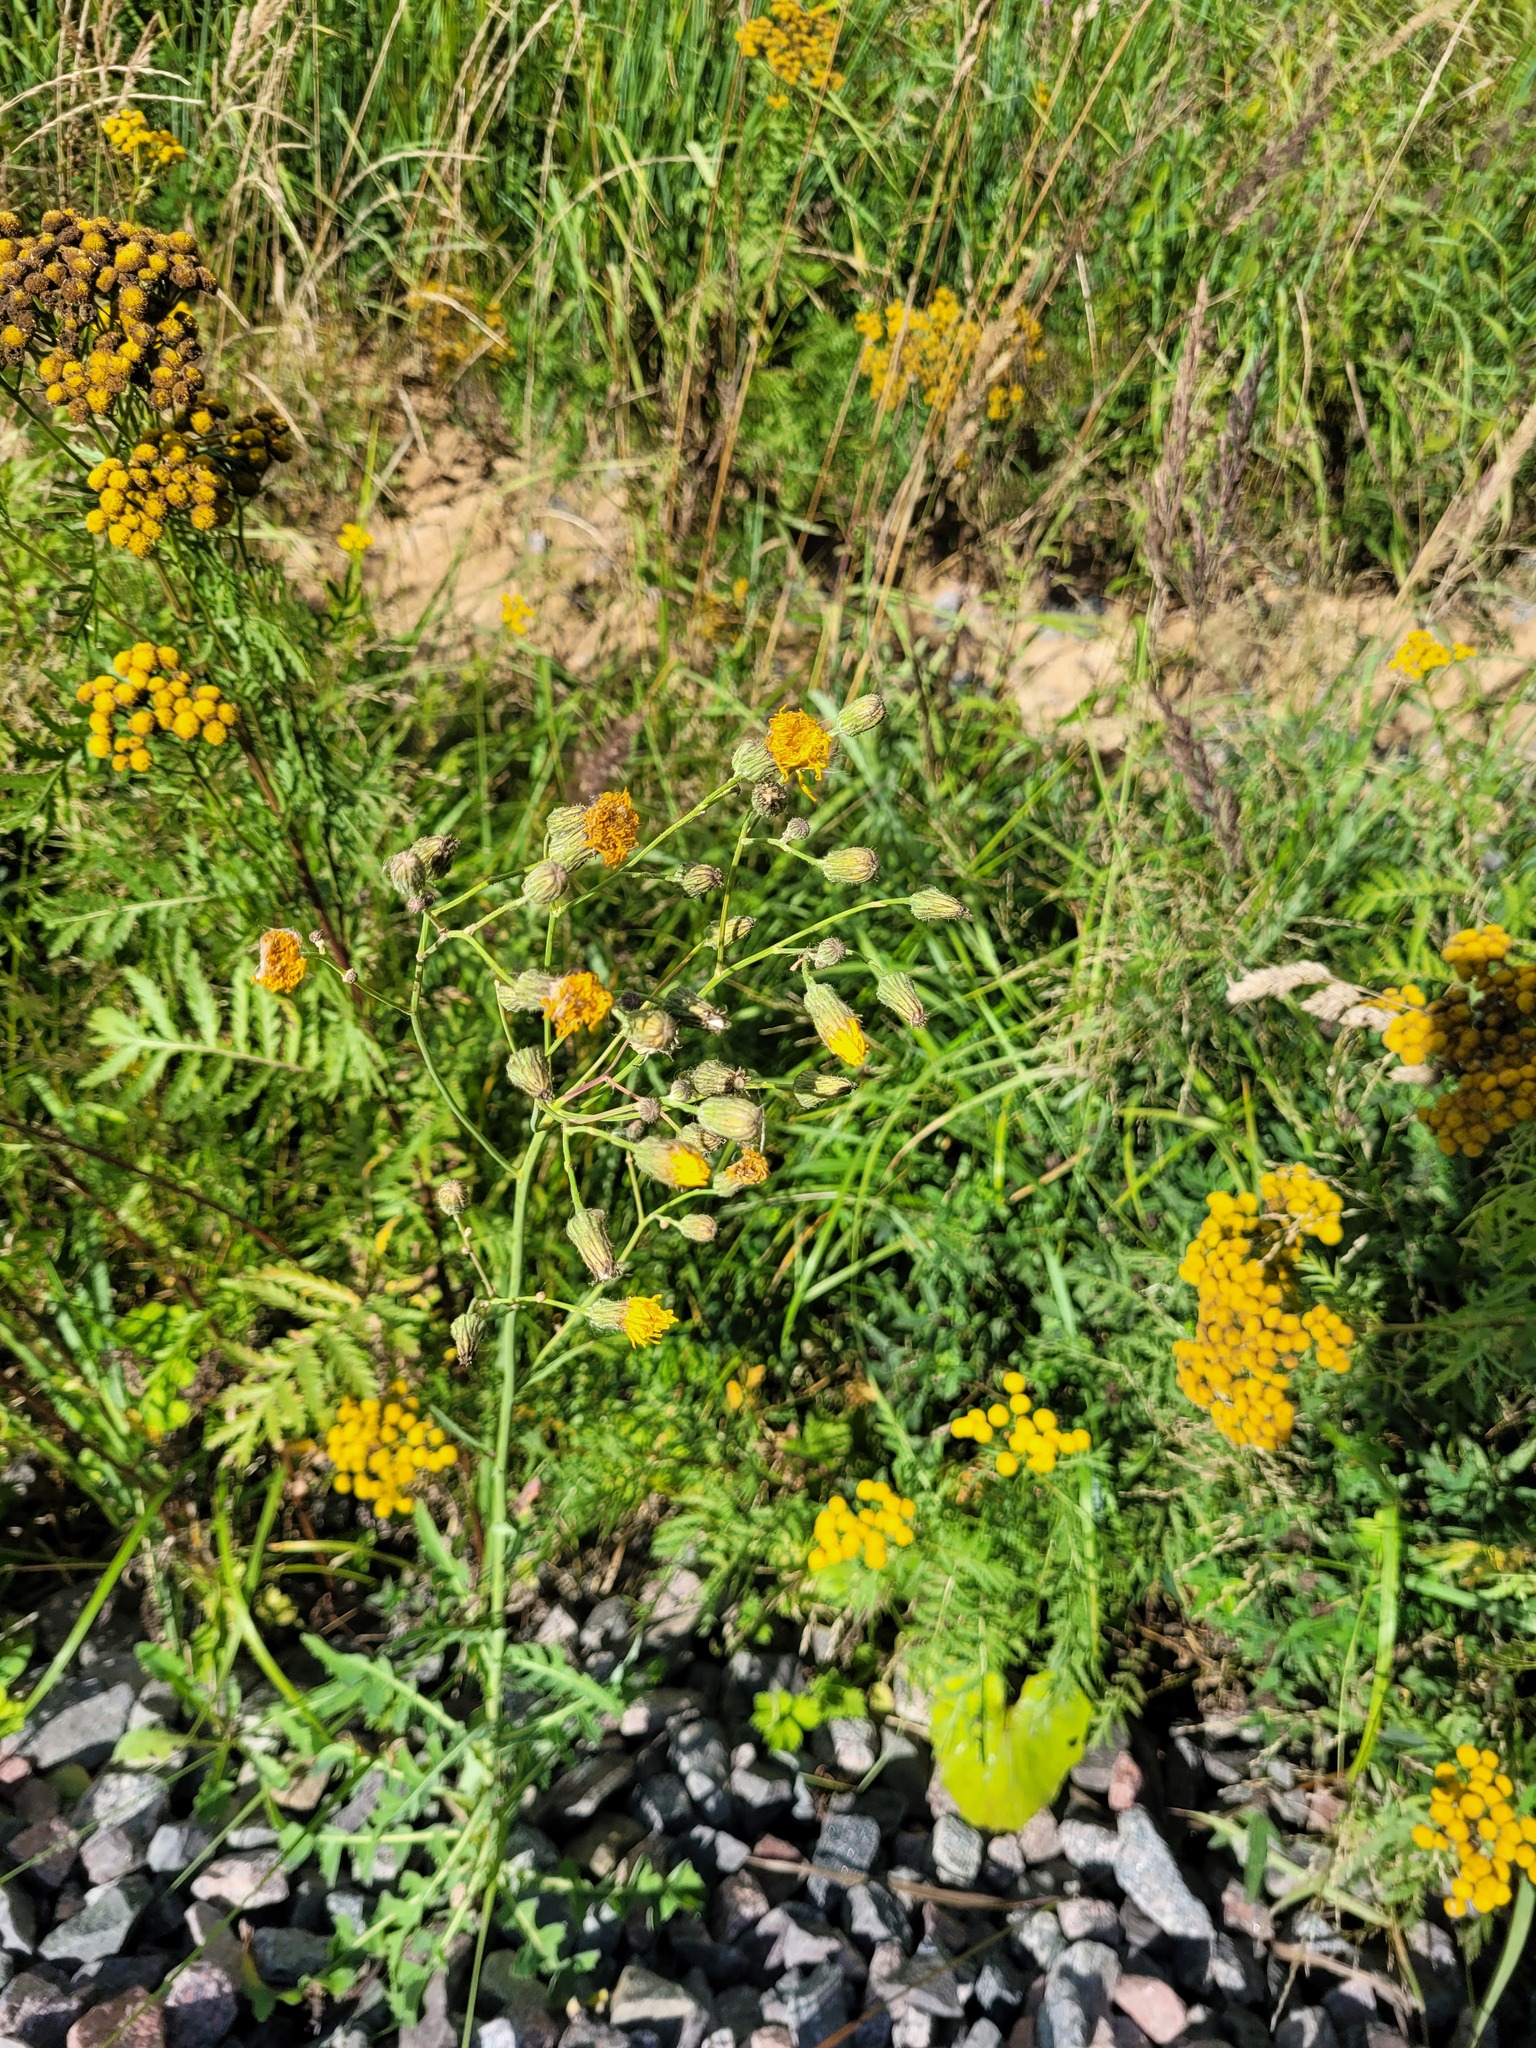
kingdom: Plantae
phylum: Tracheophyta
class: Magnoliopsida
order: Asterales
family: Asteraceae
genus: Sonchus
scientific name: Sonchus arvensis
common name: Perennial sow-thistle
